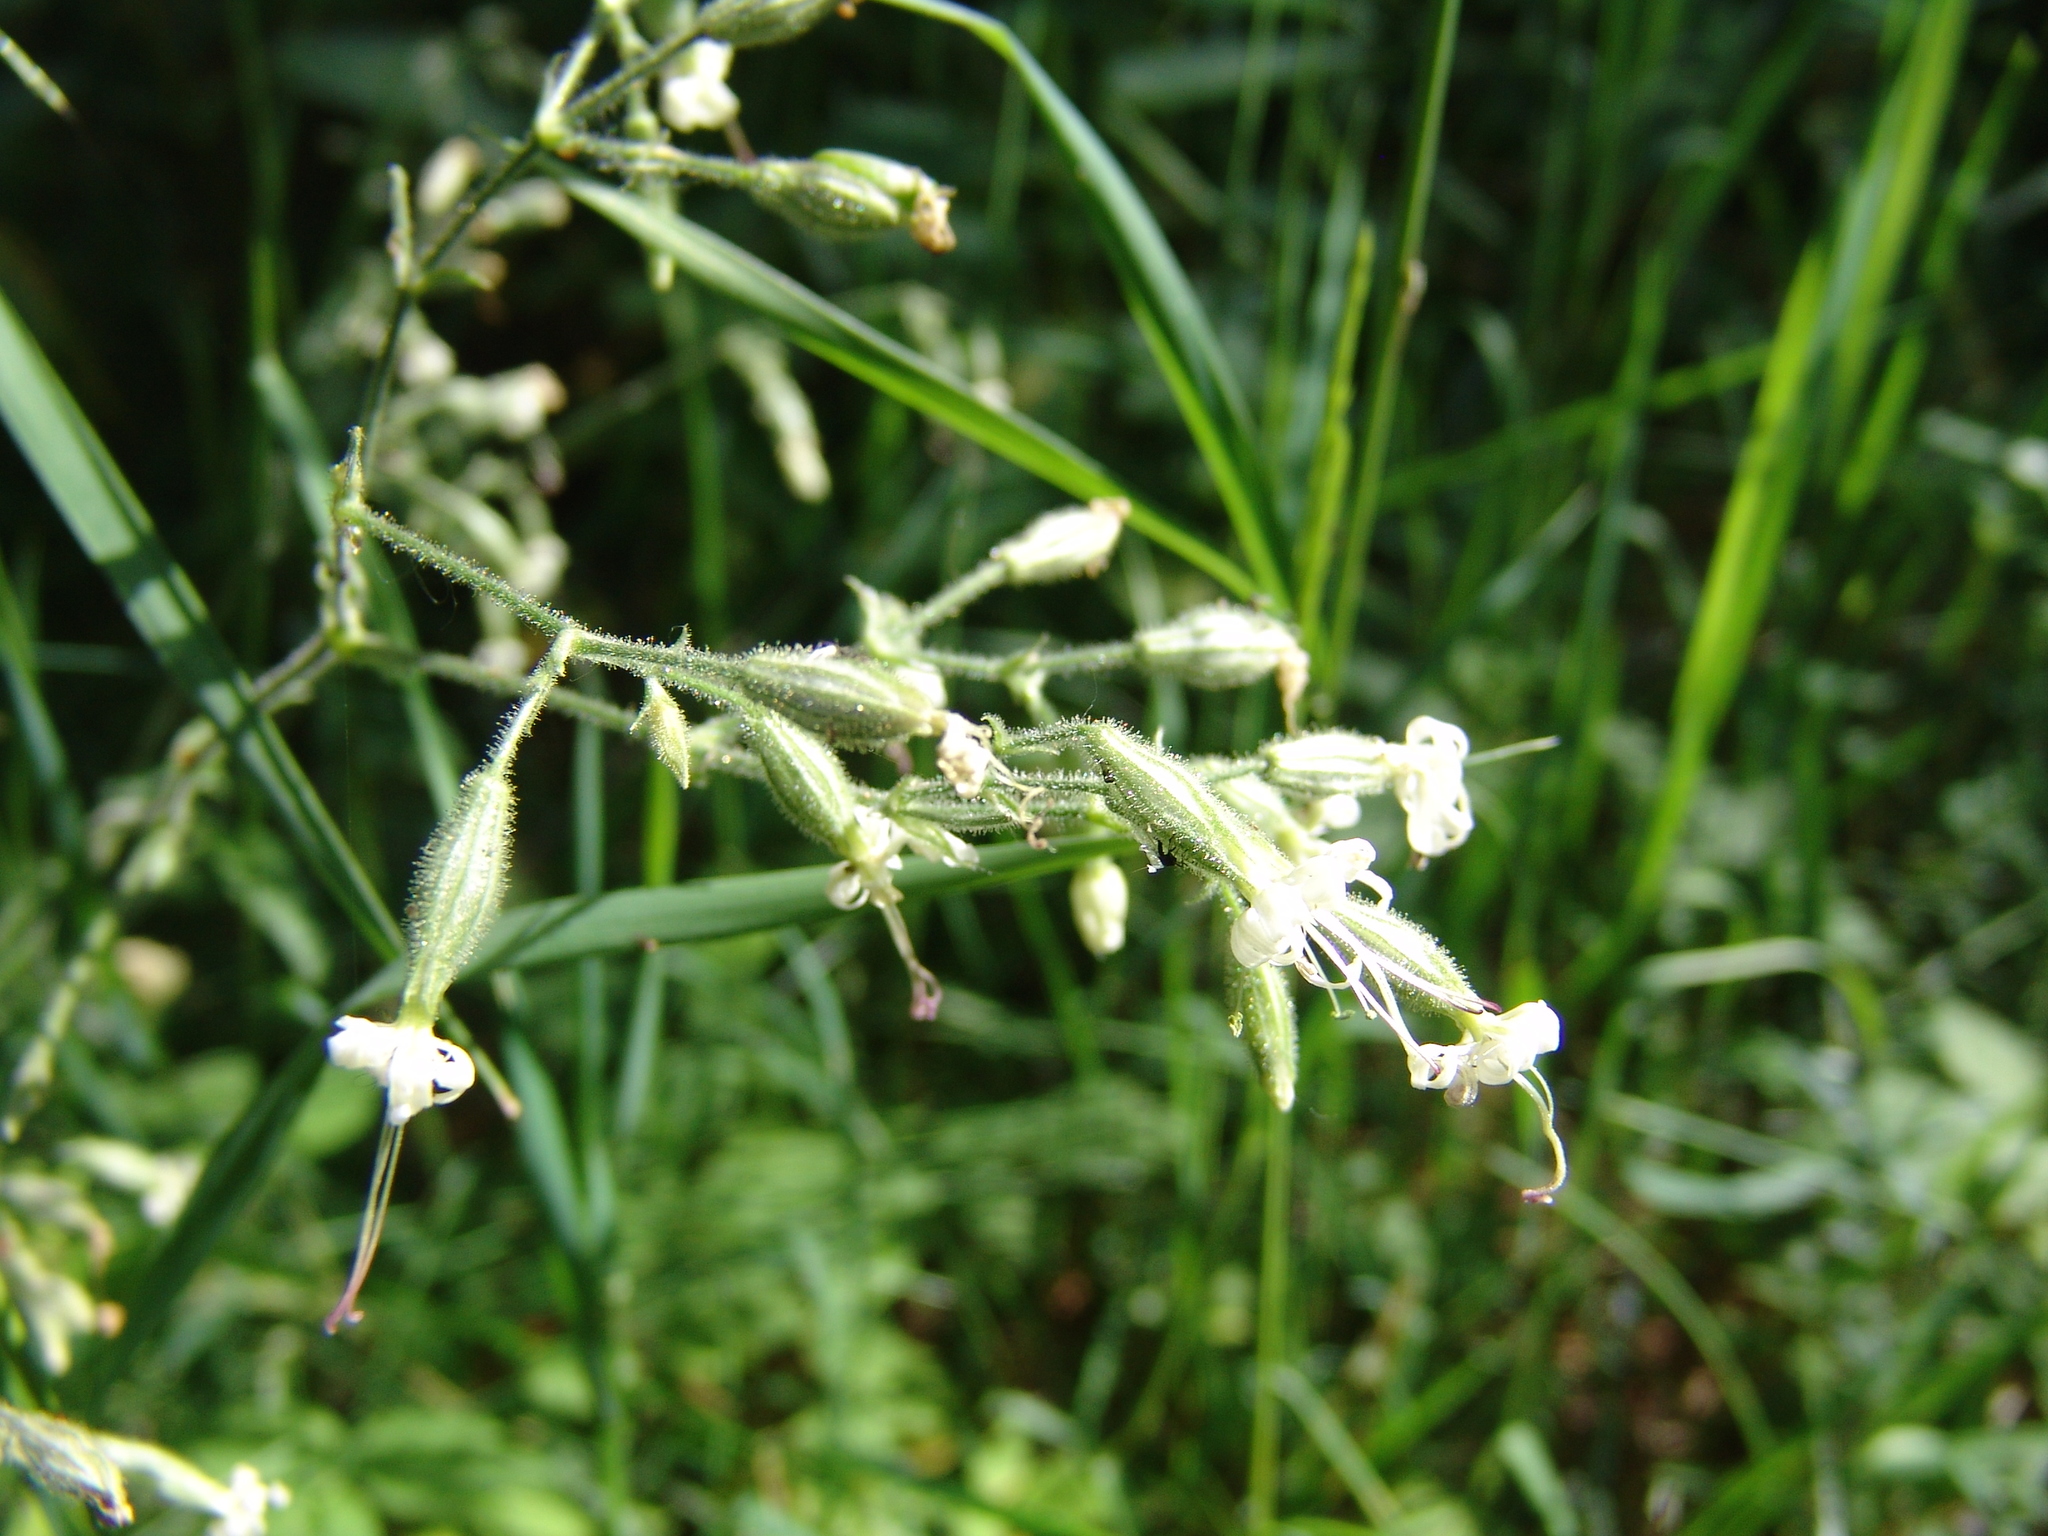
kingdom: Plantae
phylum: Tracheophyta
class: Magnoliopsida
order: Caryophyllales
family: Caryophyllaceae
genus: Silene
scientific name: Silene nutans
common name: Nottingham catchfly
